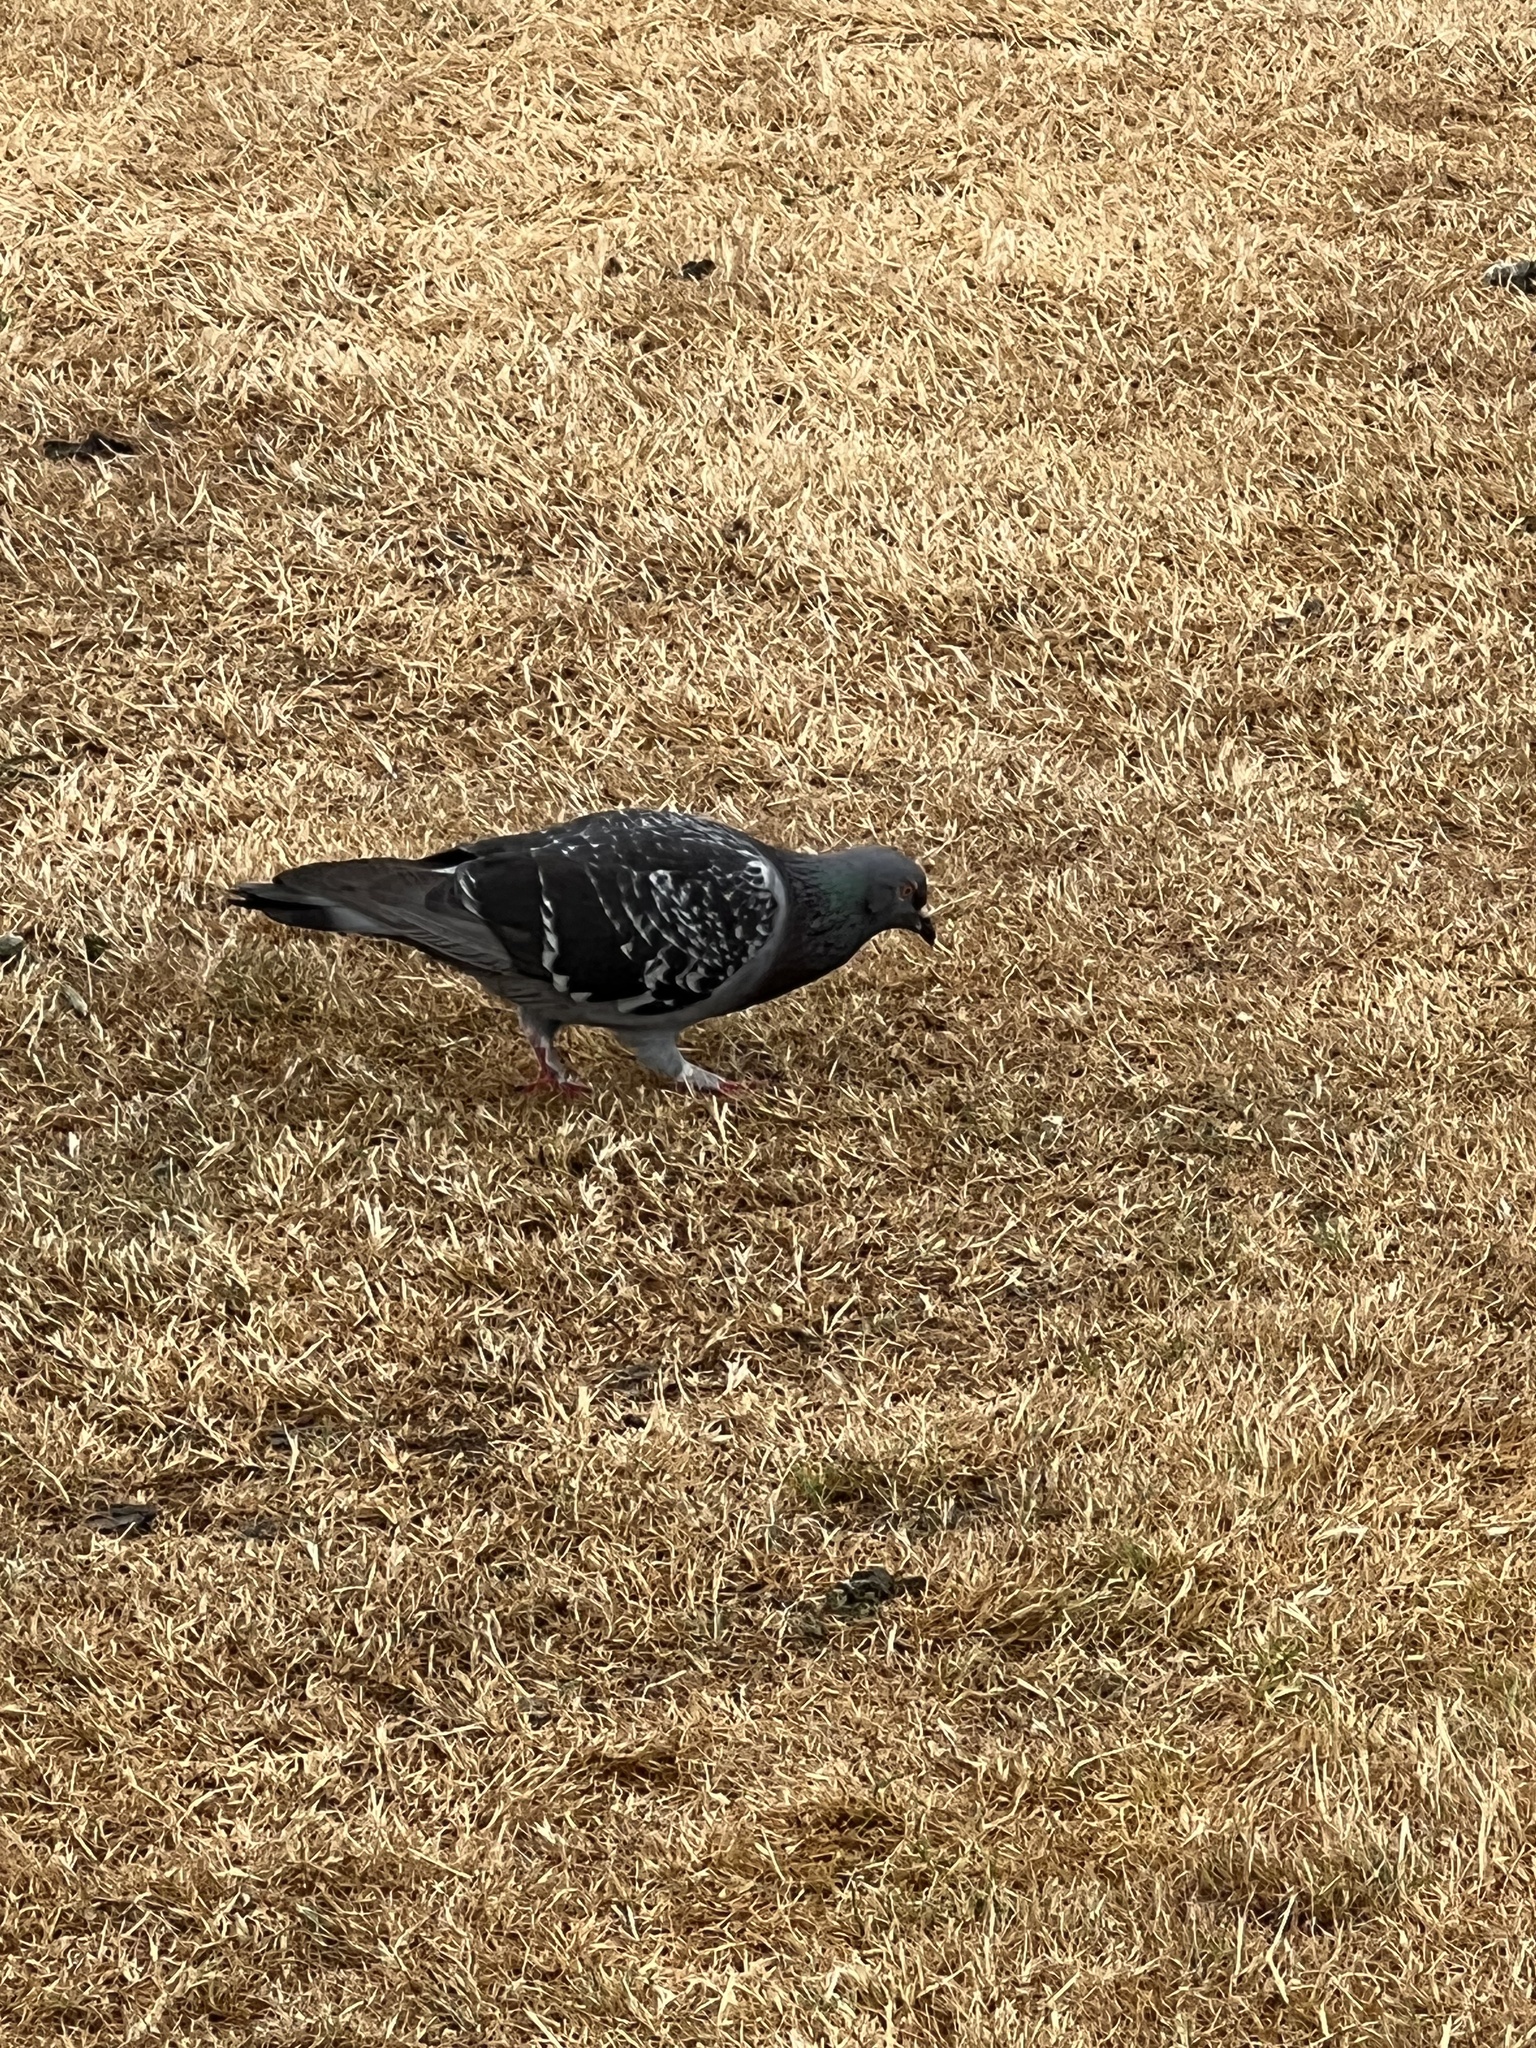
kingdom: Animalia
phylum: Chordata
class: Aves
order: Columbiformes
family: Columbidae
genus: Columba
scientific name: Columba livia
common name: Rock pigeon
